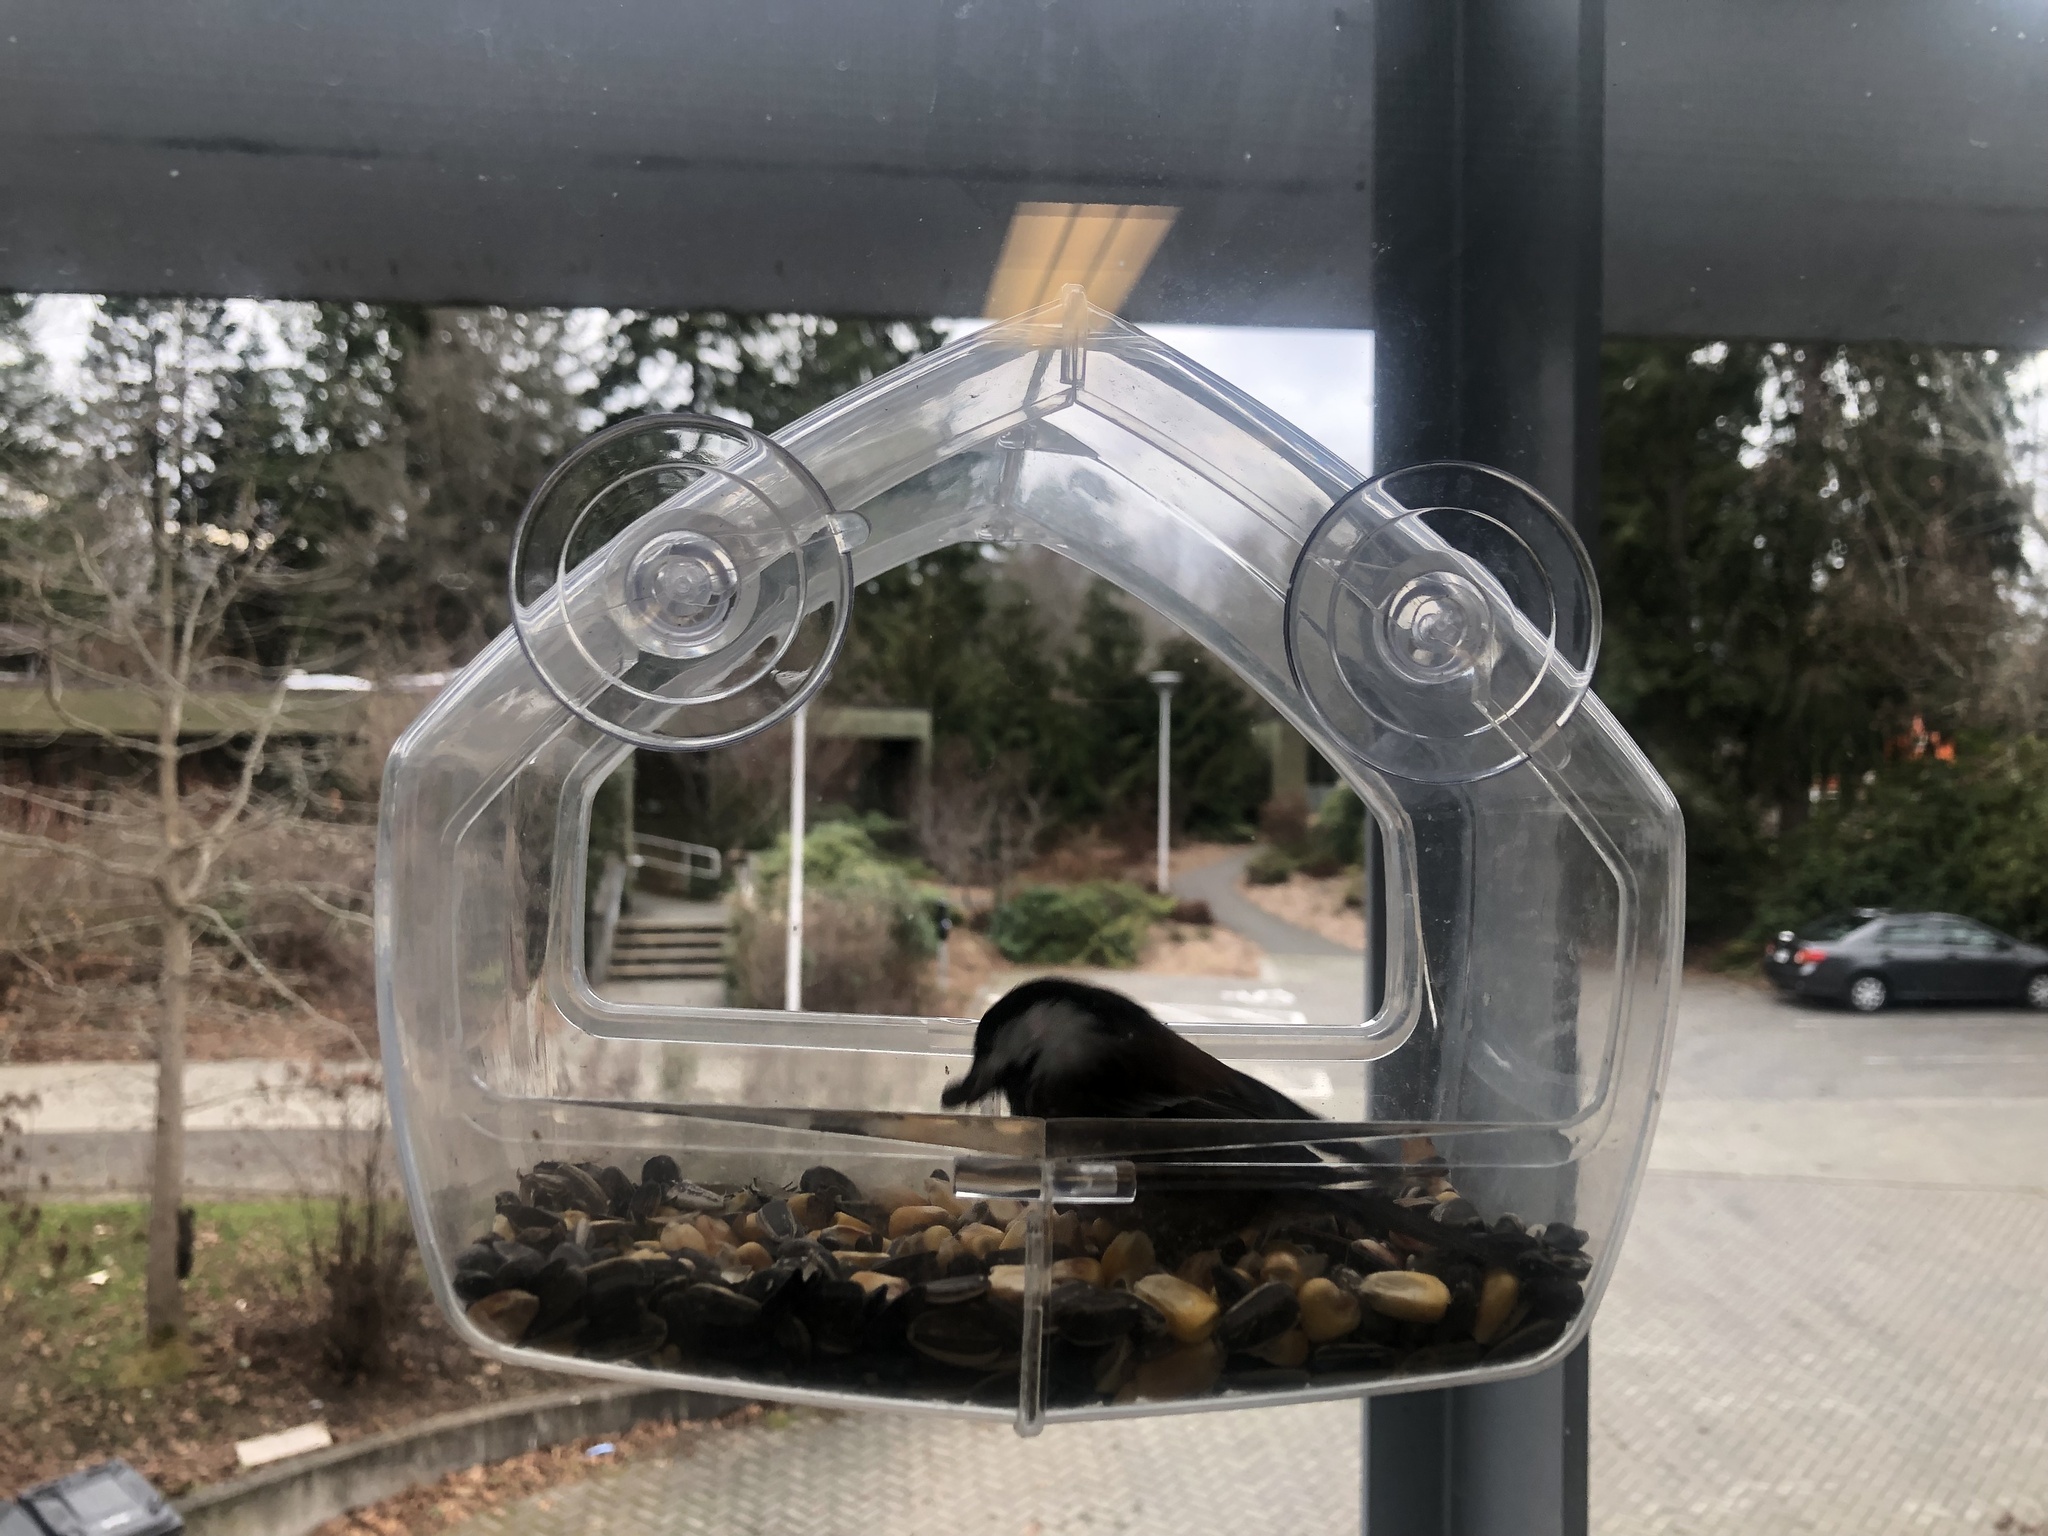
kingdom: Animalia
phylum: Chordata
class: Aves
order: Passeriformes
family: Paridae
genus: Poecile
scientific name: Poecile rufescens
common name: Chestnut-backed chickadee
